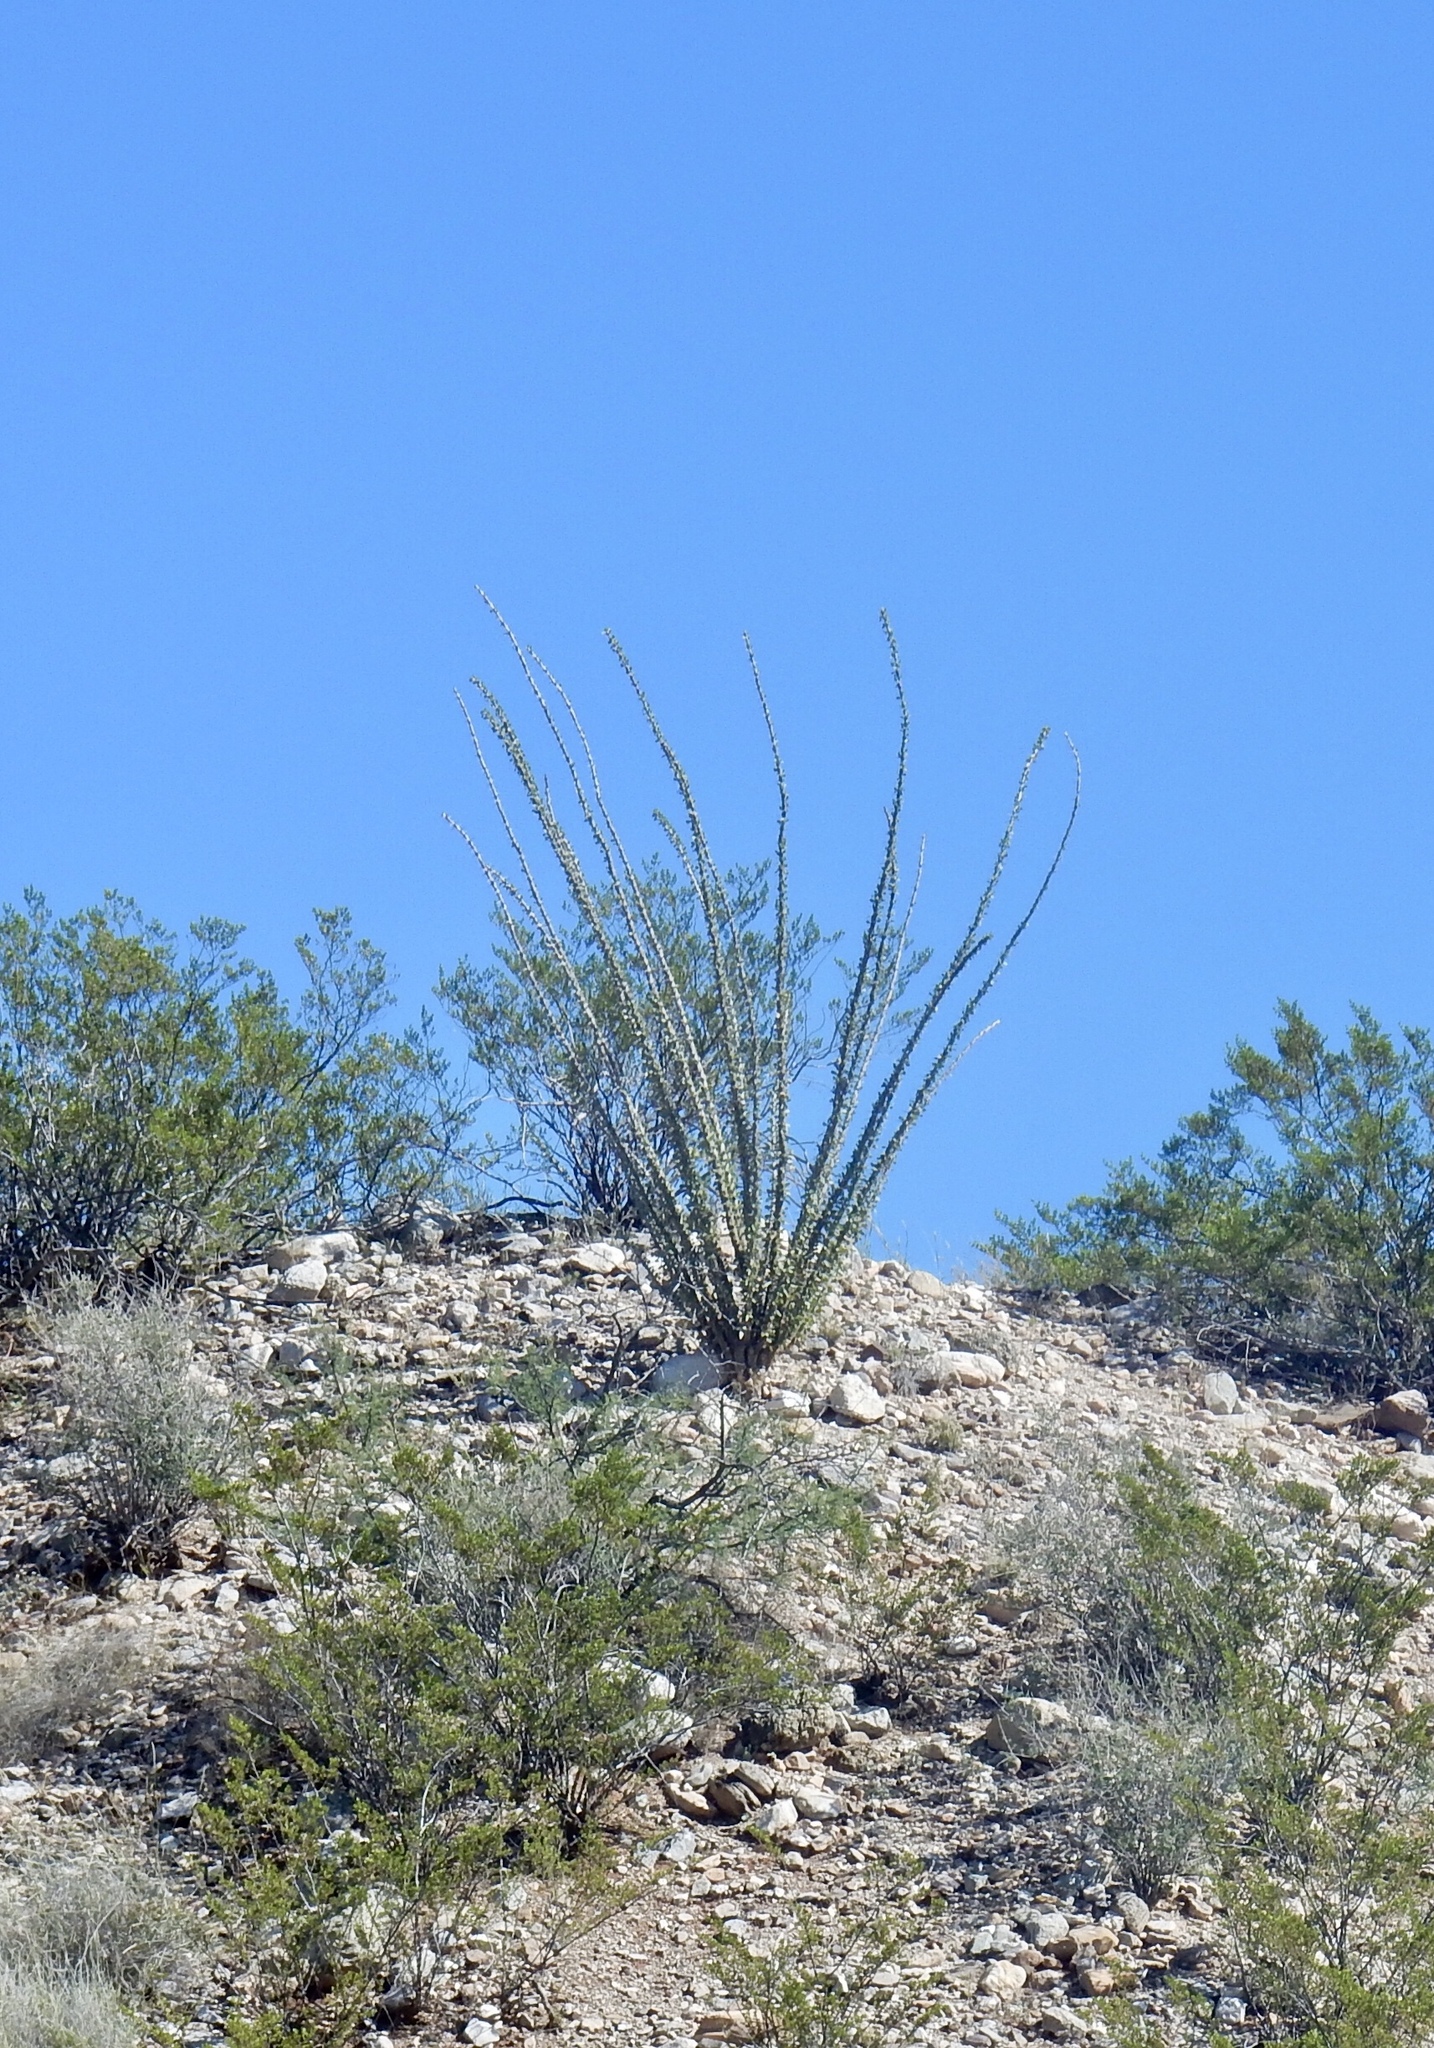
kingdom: Plantae
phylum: Tracheophyta
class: Magnoliopsida
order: Ericales
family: Fouquieriaceae
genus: Fouquieria
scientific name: Fouquieria splendens
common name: Vine-cactus
